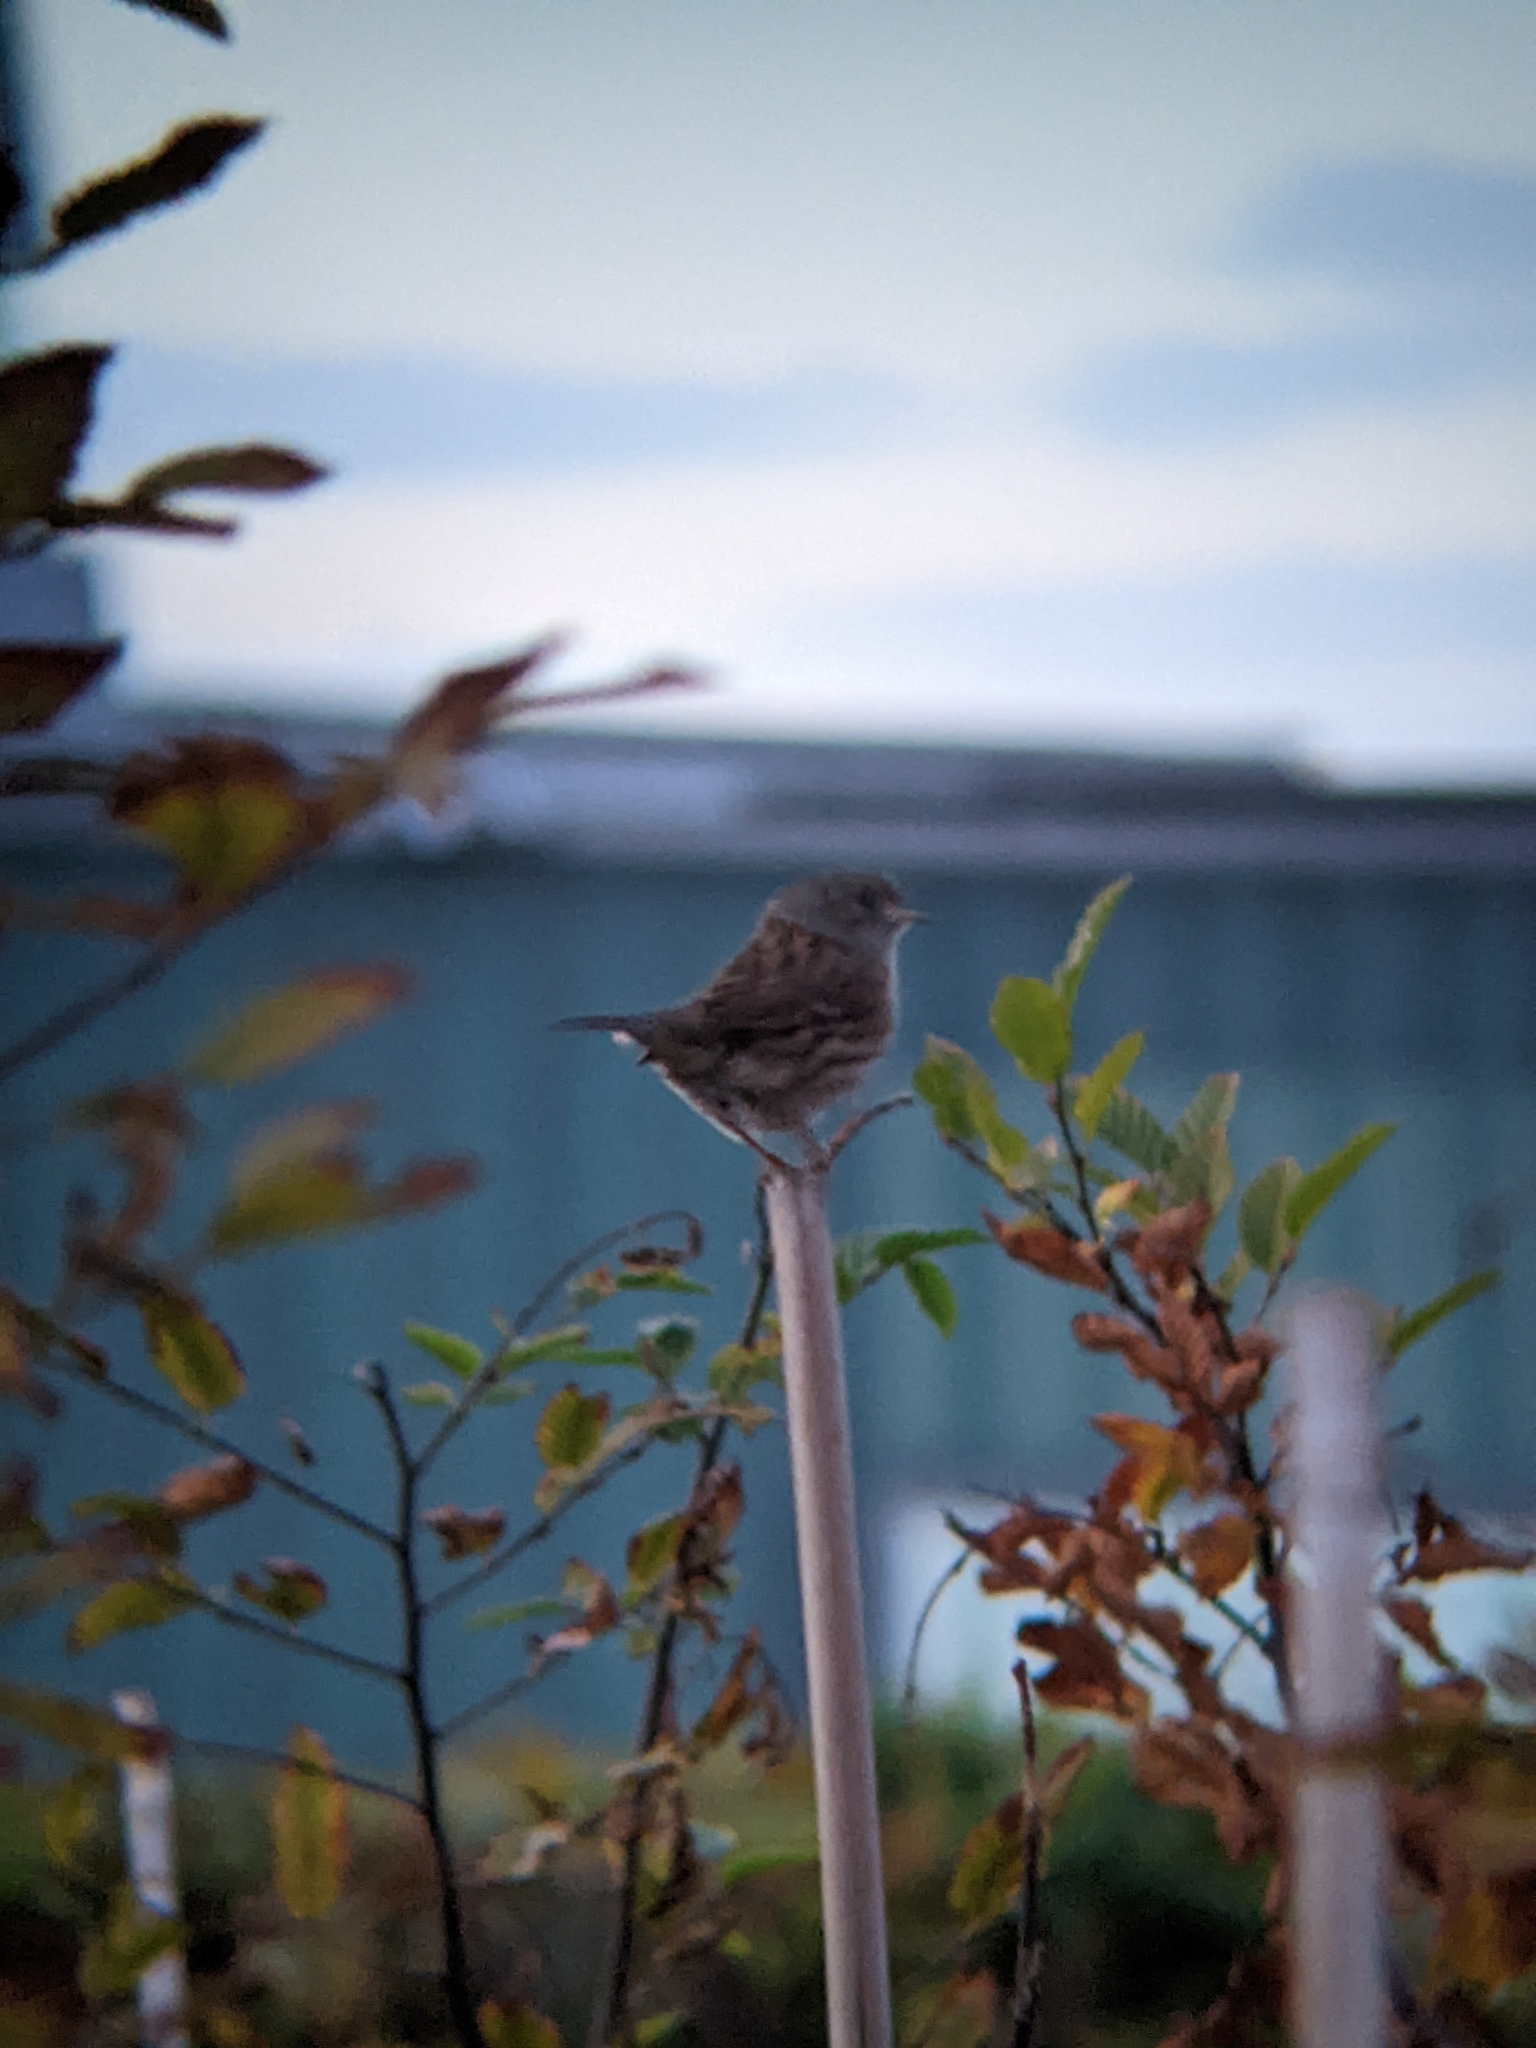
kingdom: Animalia
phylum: Chordata
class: Aves
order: Passeriformes
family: Prunellidae
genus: Prunella
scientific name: Prunella modularis
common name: Dunnock
